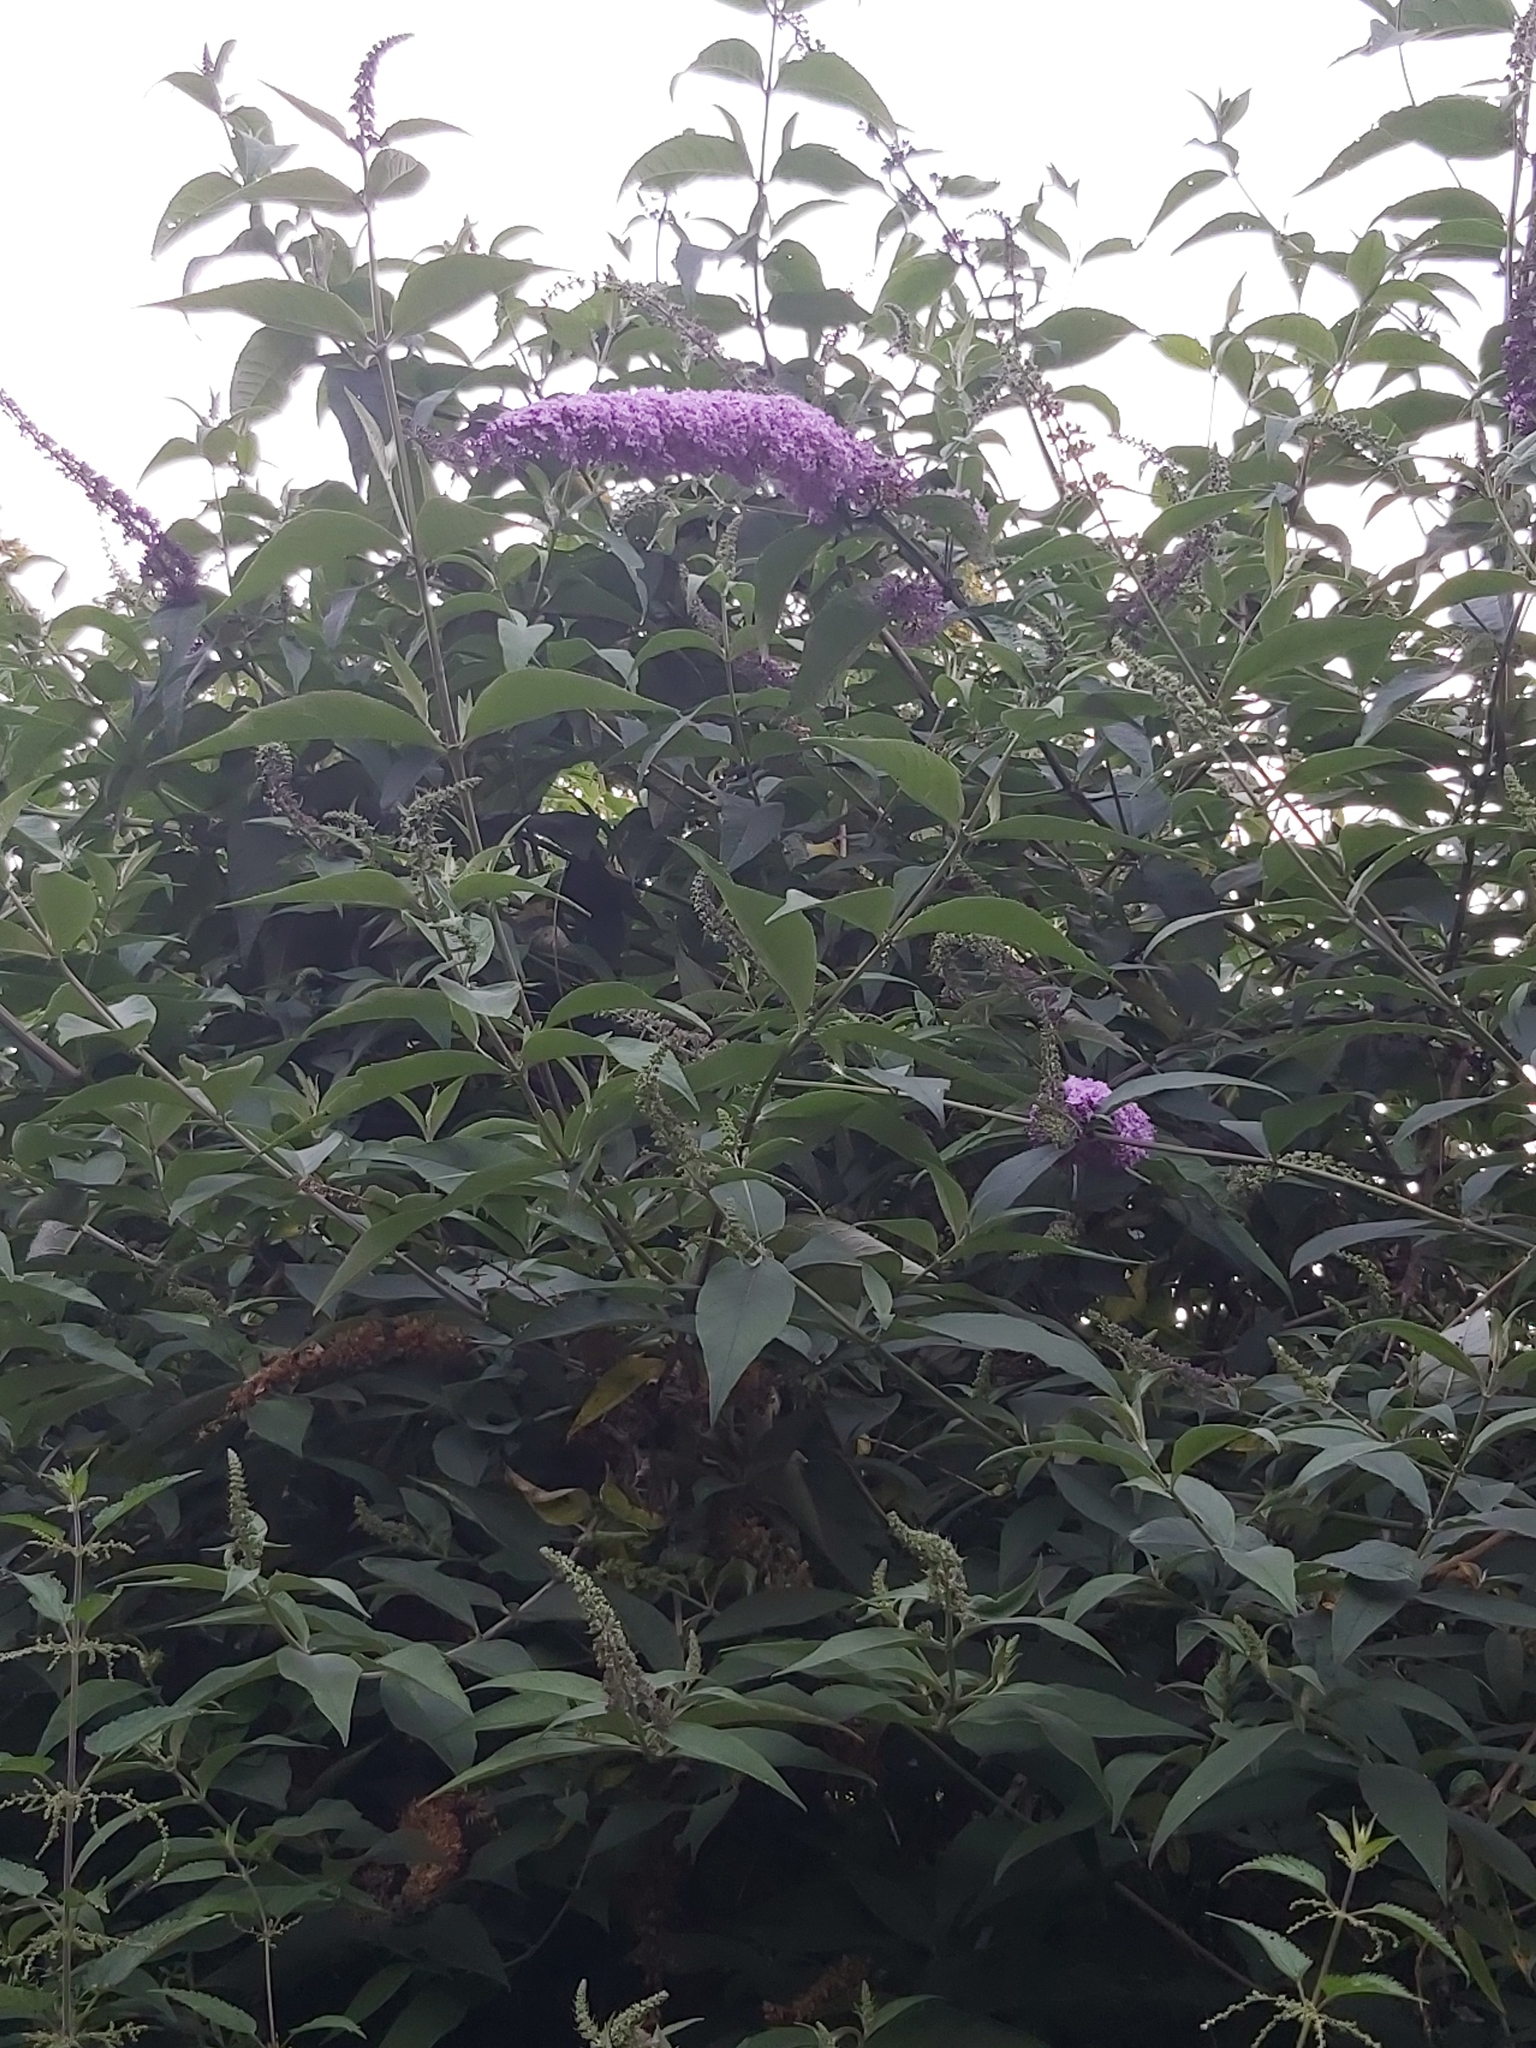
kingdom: Plantae
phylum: Tracheophyta
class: Magnoliopsida
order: Lamiales
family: Scrophulariaceae
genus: Buddleja
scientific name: Buddleja davidii
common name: Butterfly-bush
